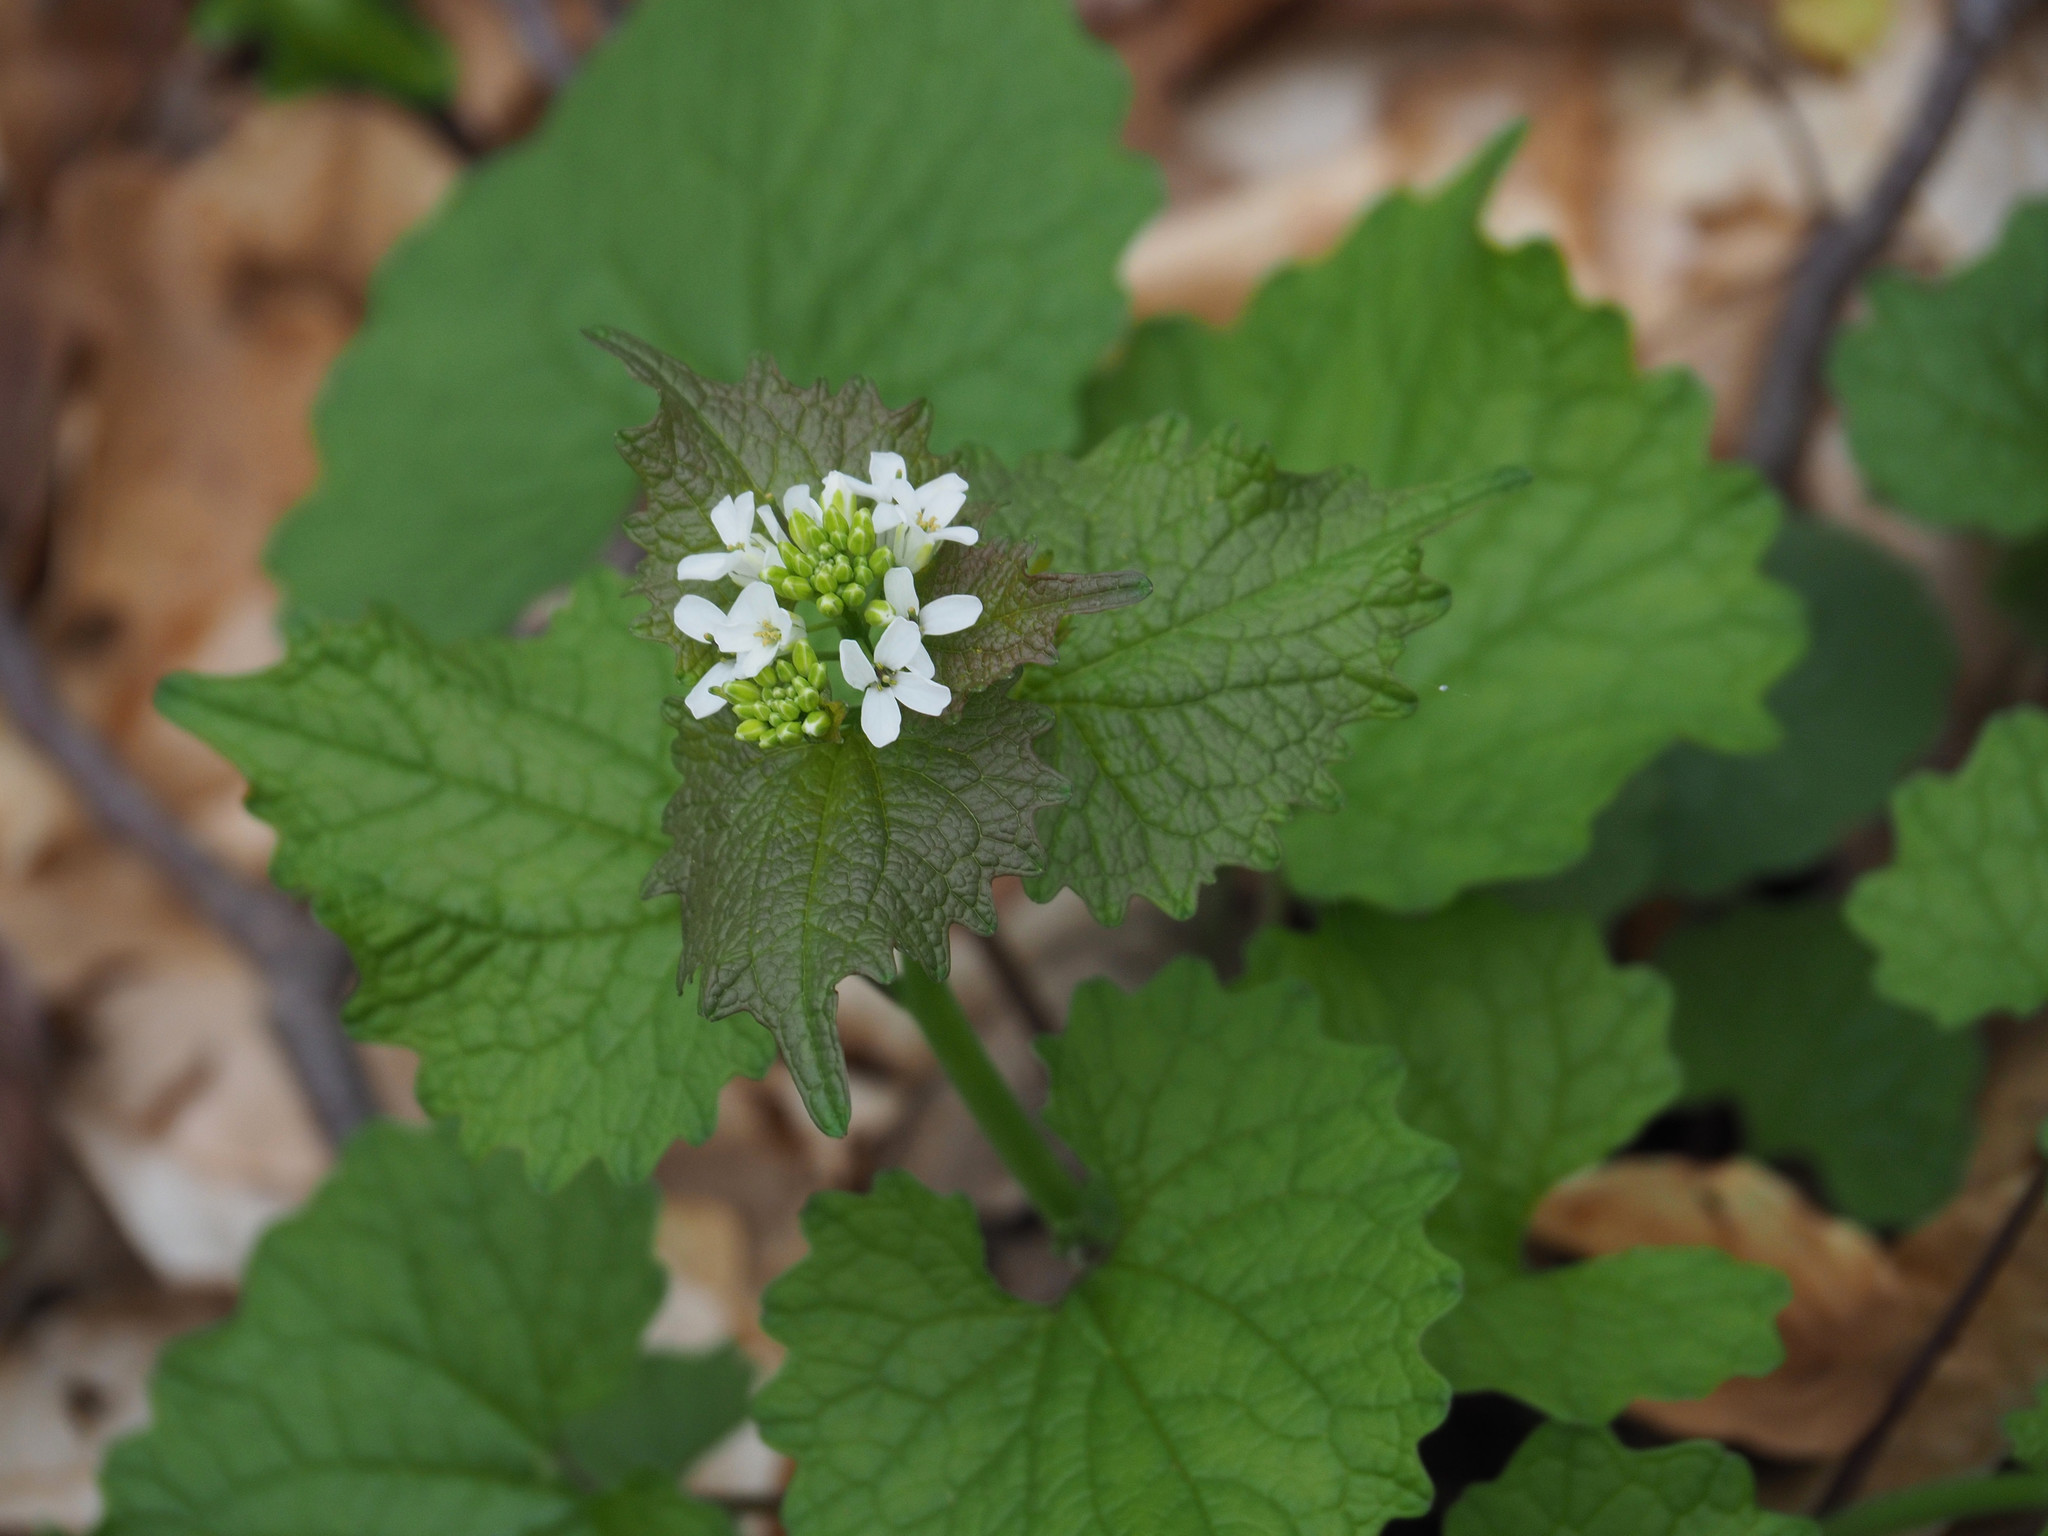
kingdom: Plantae
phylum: Tracheophyta
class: Magnoliopsida
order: Brassicales
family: Brassicaceae
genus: Alliaria
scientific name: Alliaria petiolata
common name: Garlic mustard
